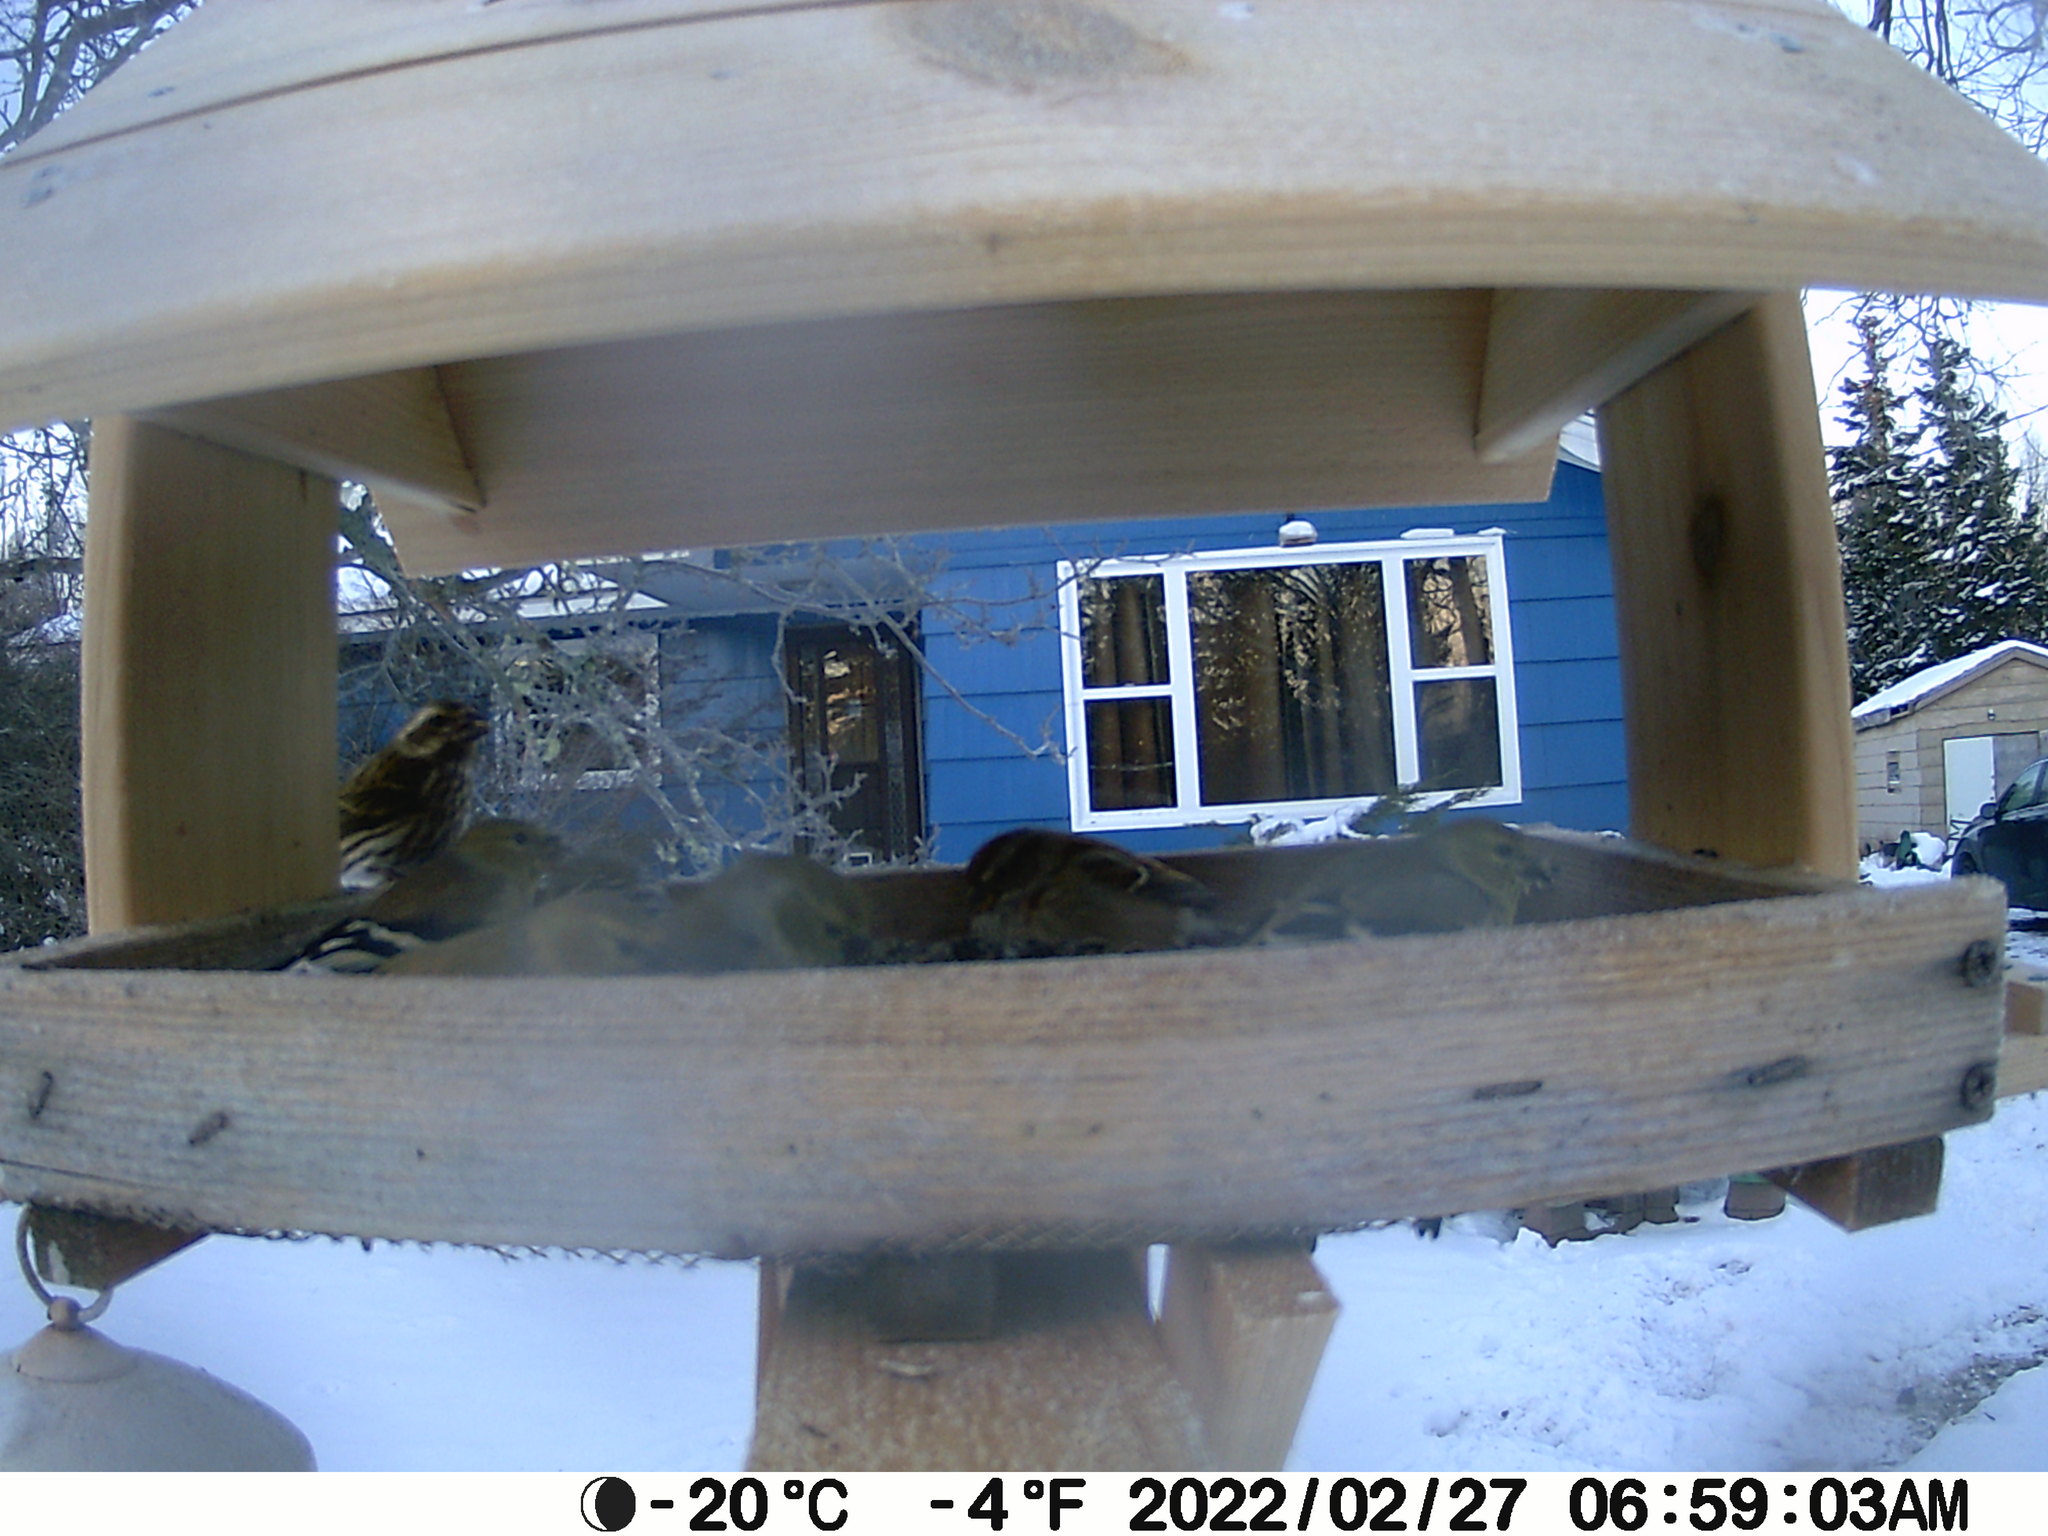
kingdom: Animalia
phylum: Chordata
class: Aves
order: Passeriformes
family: Fringillidae
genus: Haemorhous
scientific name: Haemorhous purpureus
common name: Purple finch
